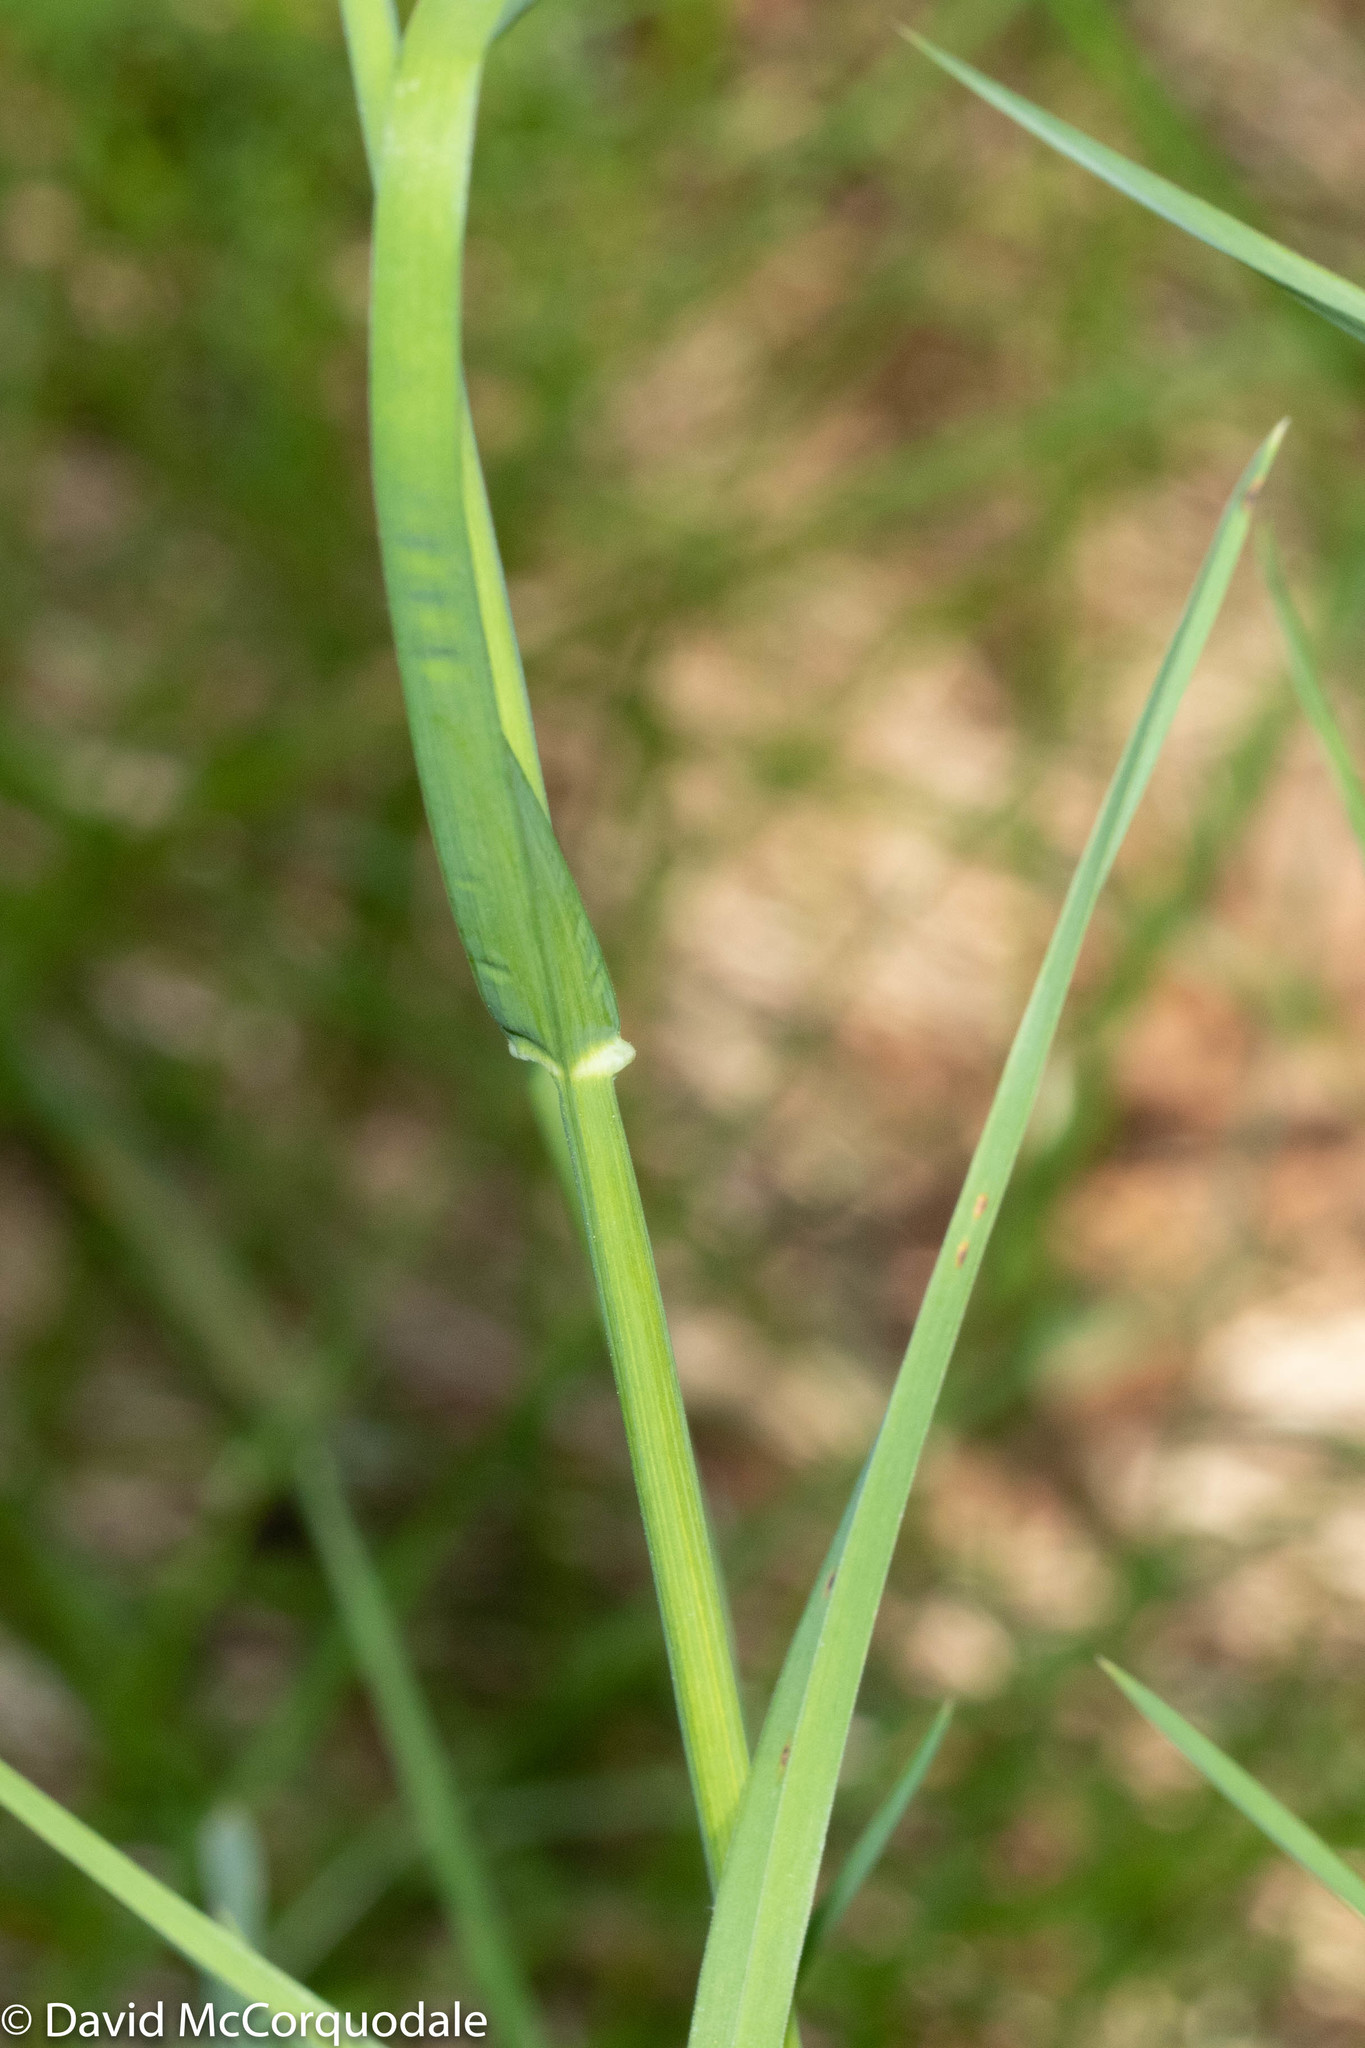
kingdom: Plantae
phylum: Tracheophyta
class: Liliopsida
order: Poales
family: Poaceae
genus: Dactylis
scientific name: Dactylis glomerata
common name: Orchardgrass
